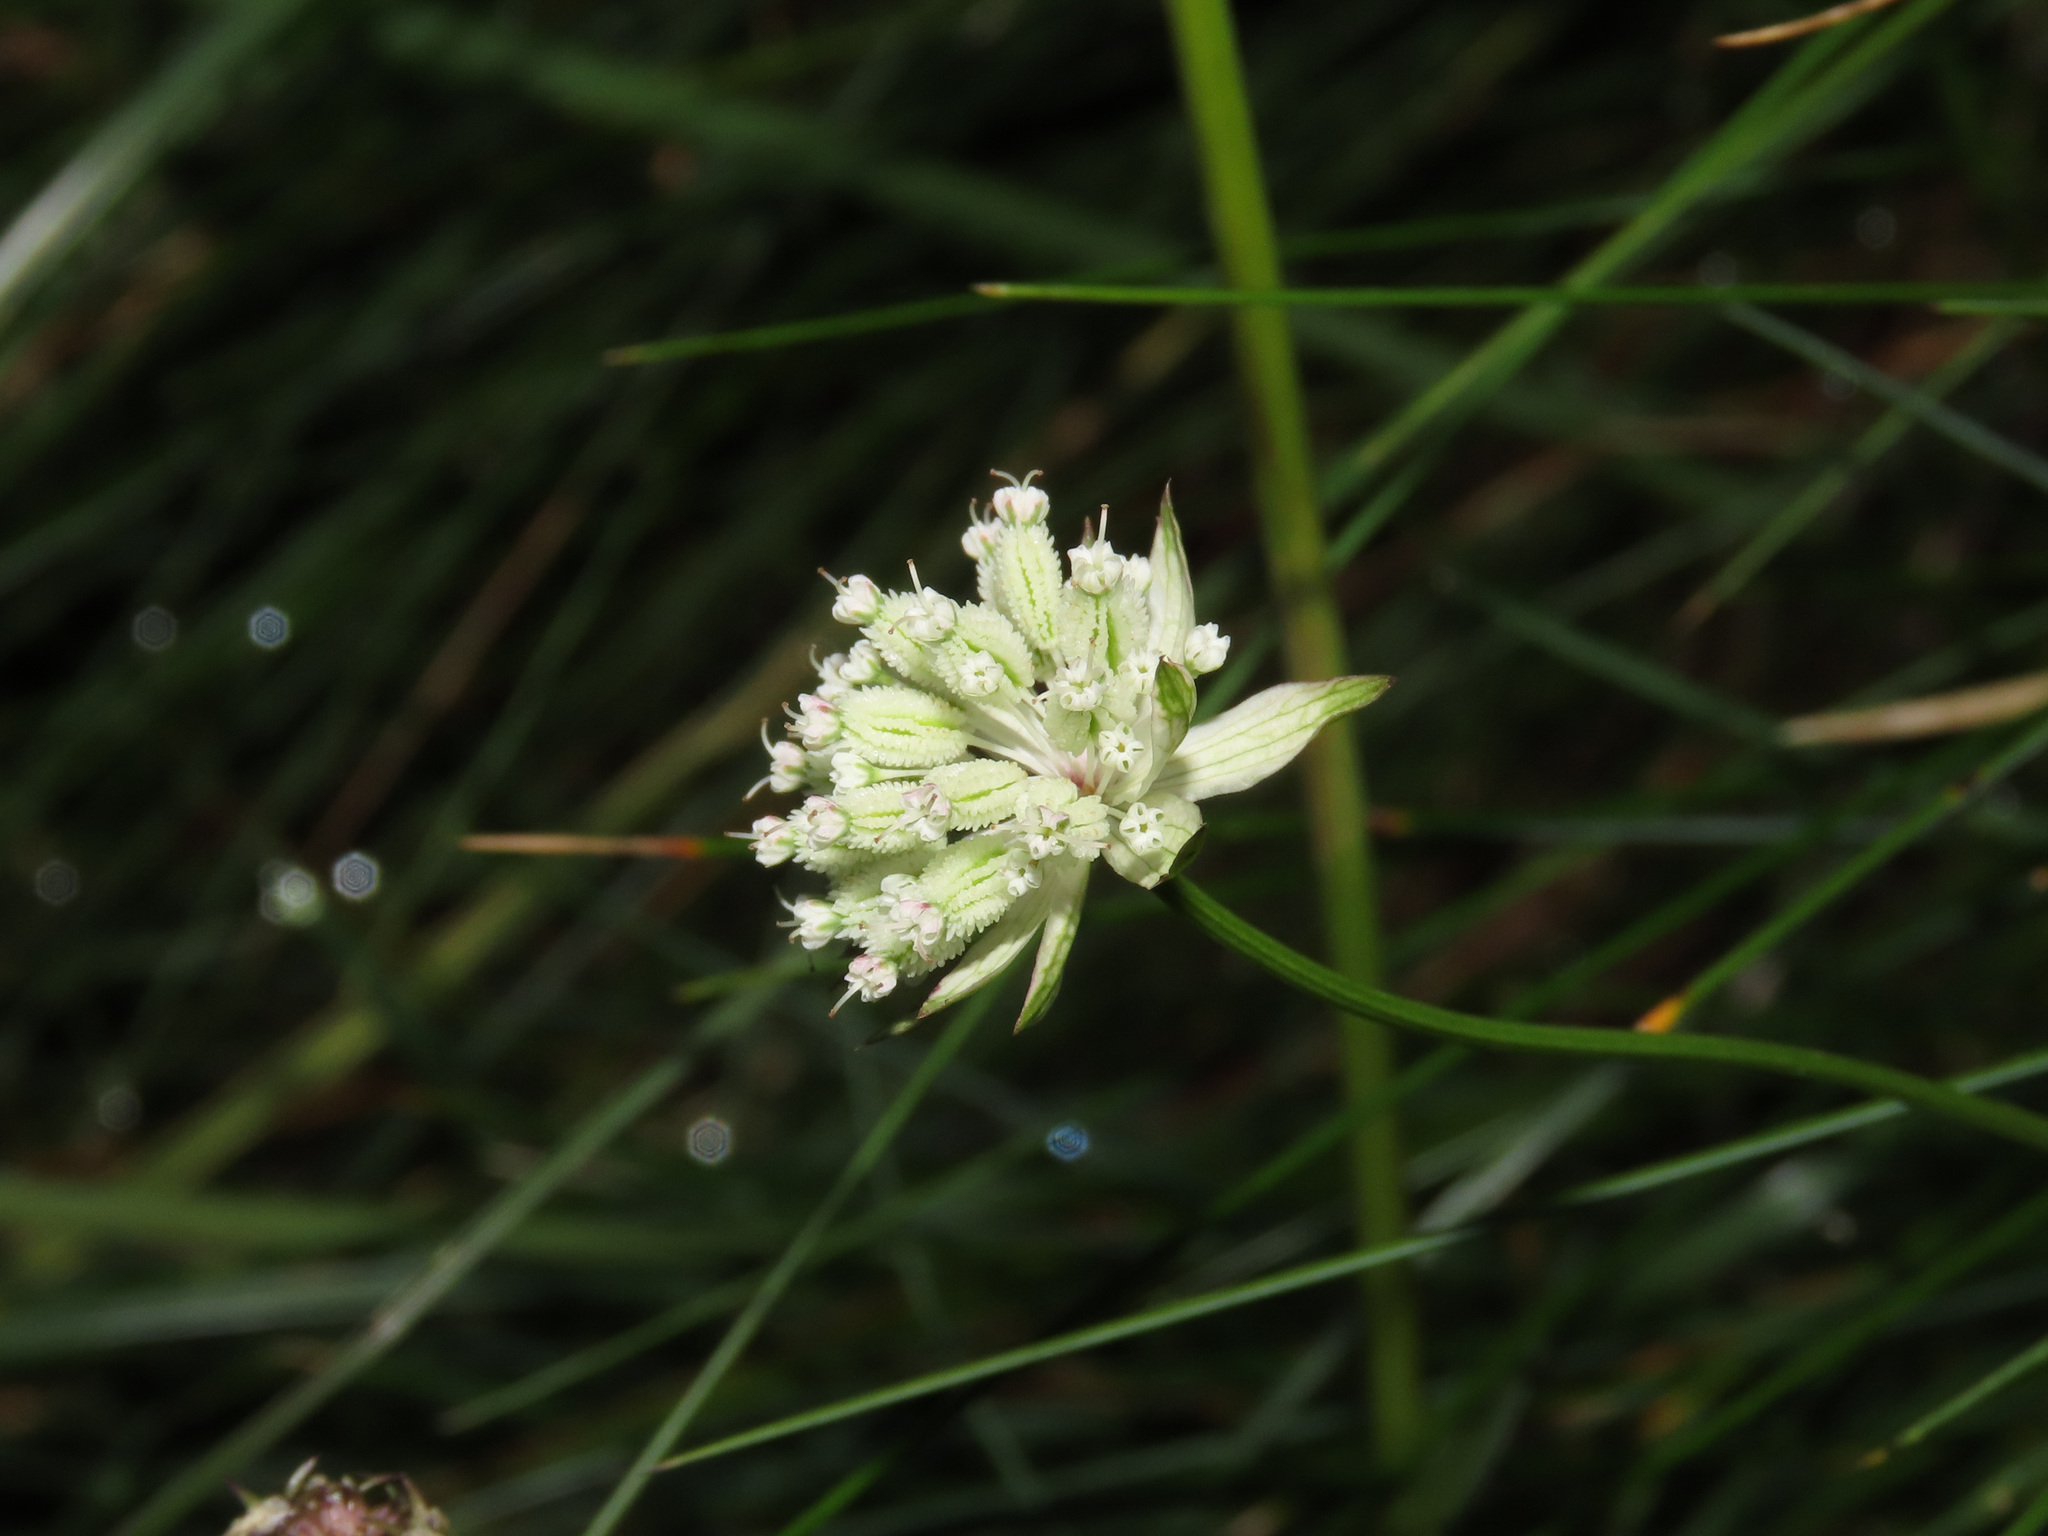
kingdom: Plantae
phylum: Tracheophyta
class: Magnoliopsida
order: Apiales
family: Apiaceae
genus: Astrantia
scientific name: Astrantia minor
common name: Lesser masterwort
